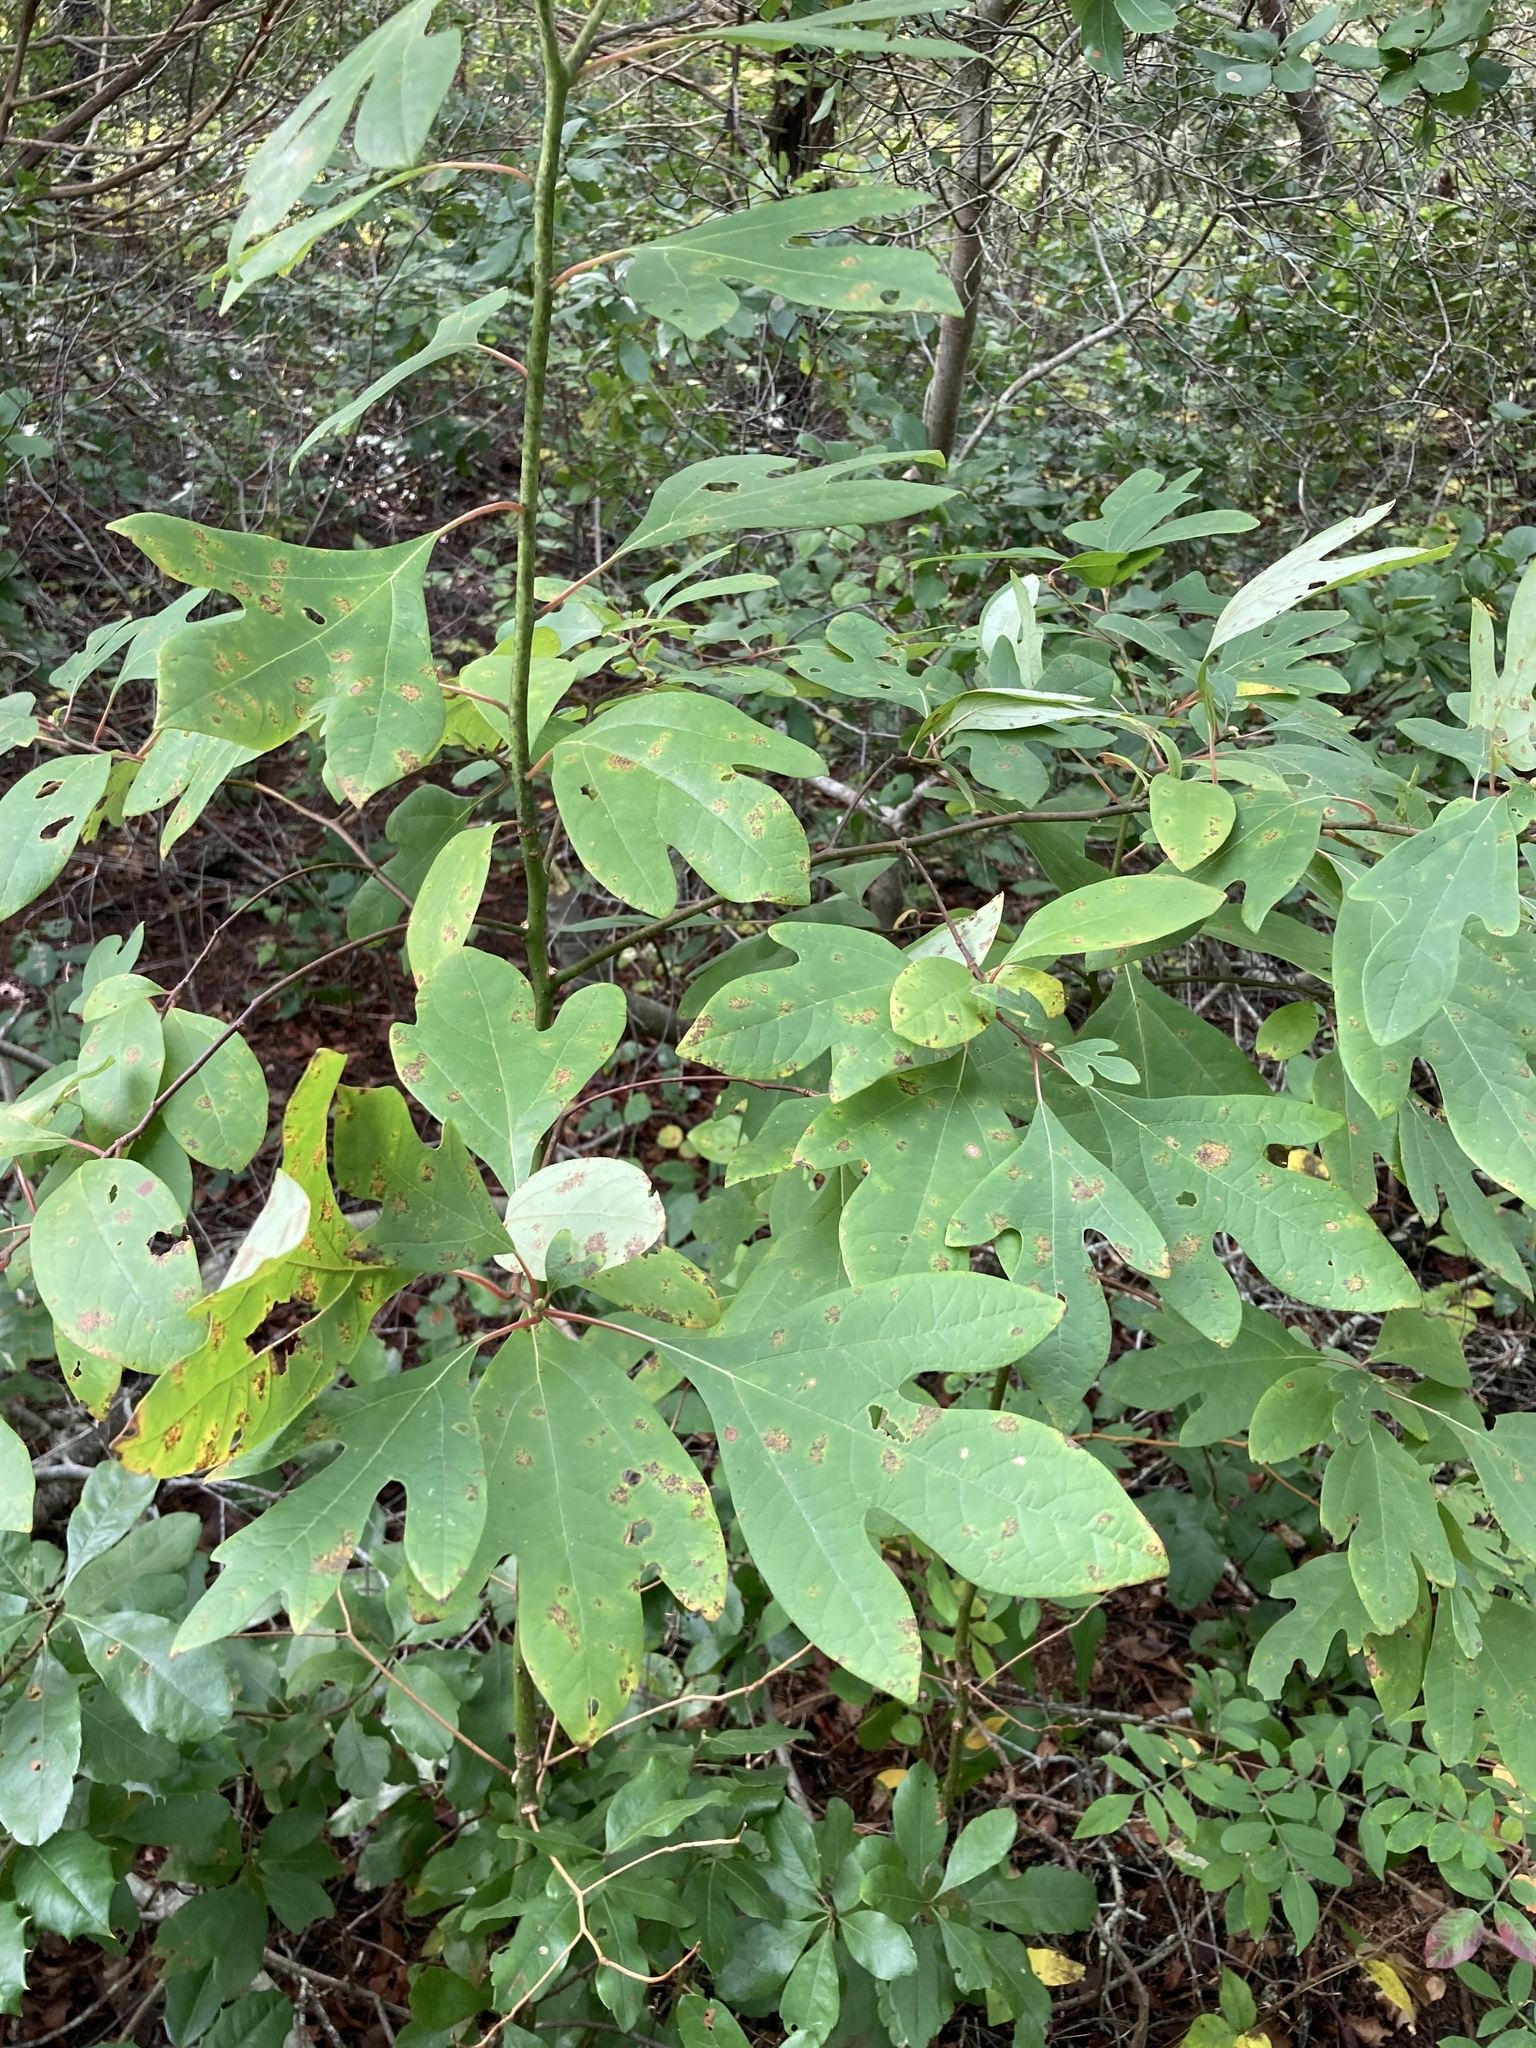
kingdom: Plantae
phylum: Tracheophyta
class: Magnoliopsida
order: Laurales
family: Lauraceae
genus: Sassafras
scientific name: Sassafras albidum
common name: Sassafras
